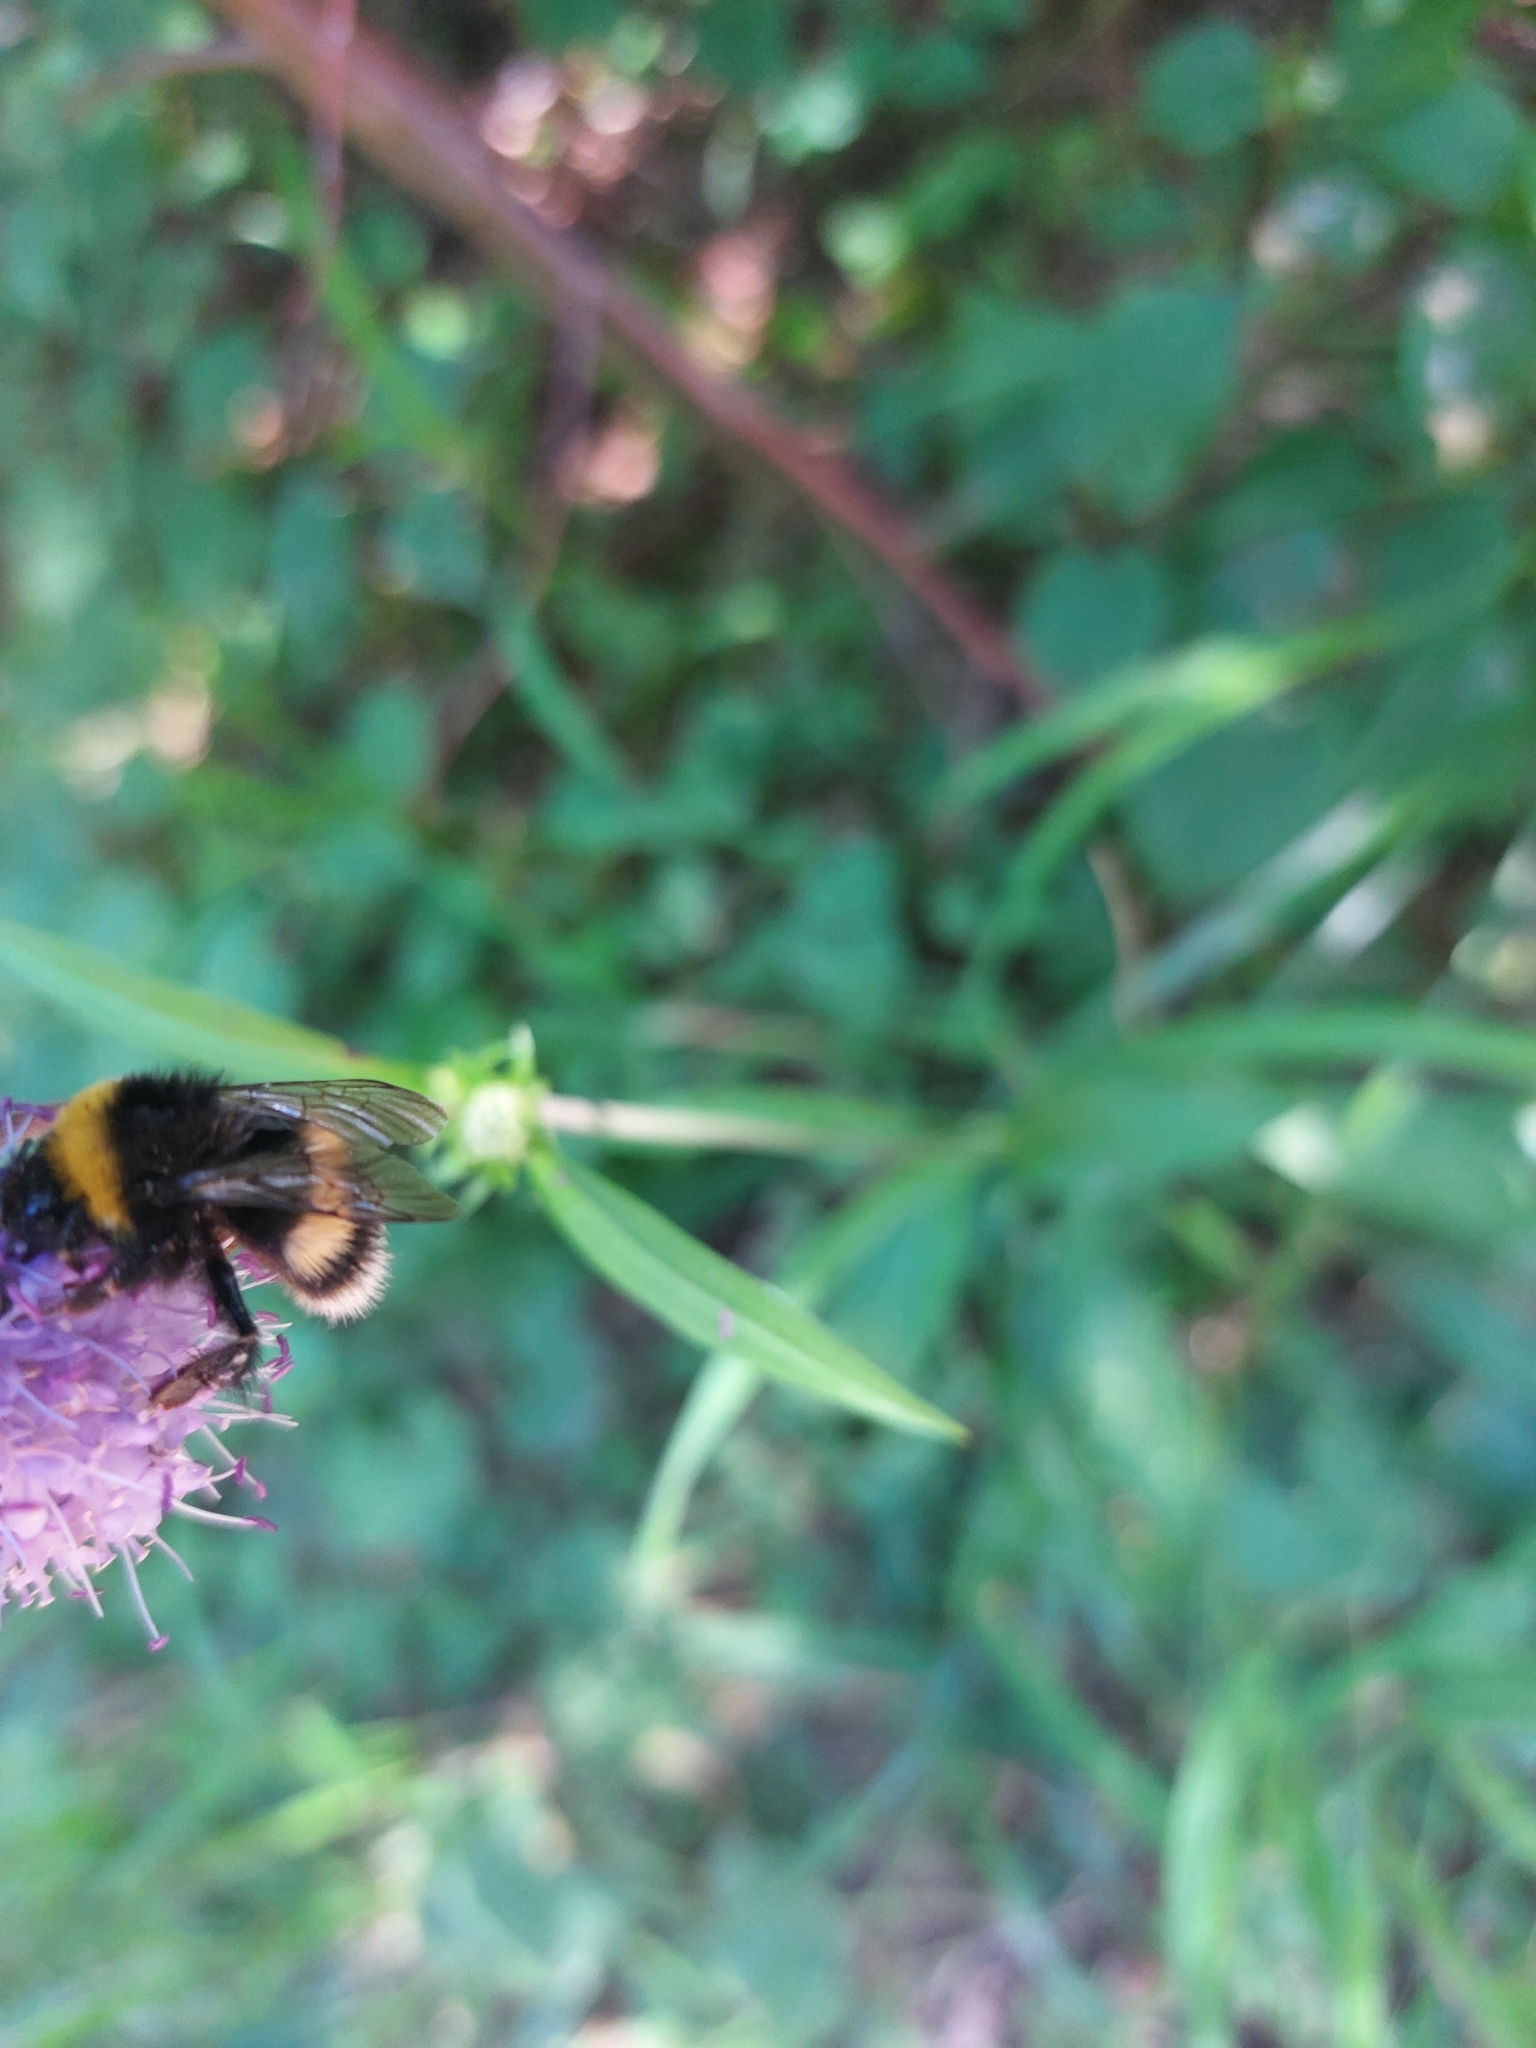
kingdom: Animalia
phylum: Arthropoda
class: Insecta
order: Hymenoptera
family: Apidae
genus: Bombus
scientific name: Bombus
